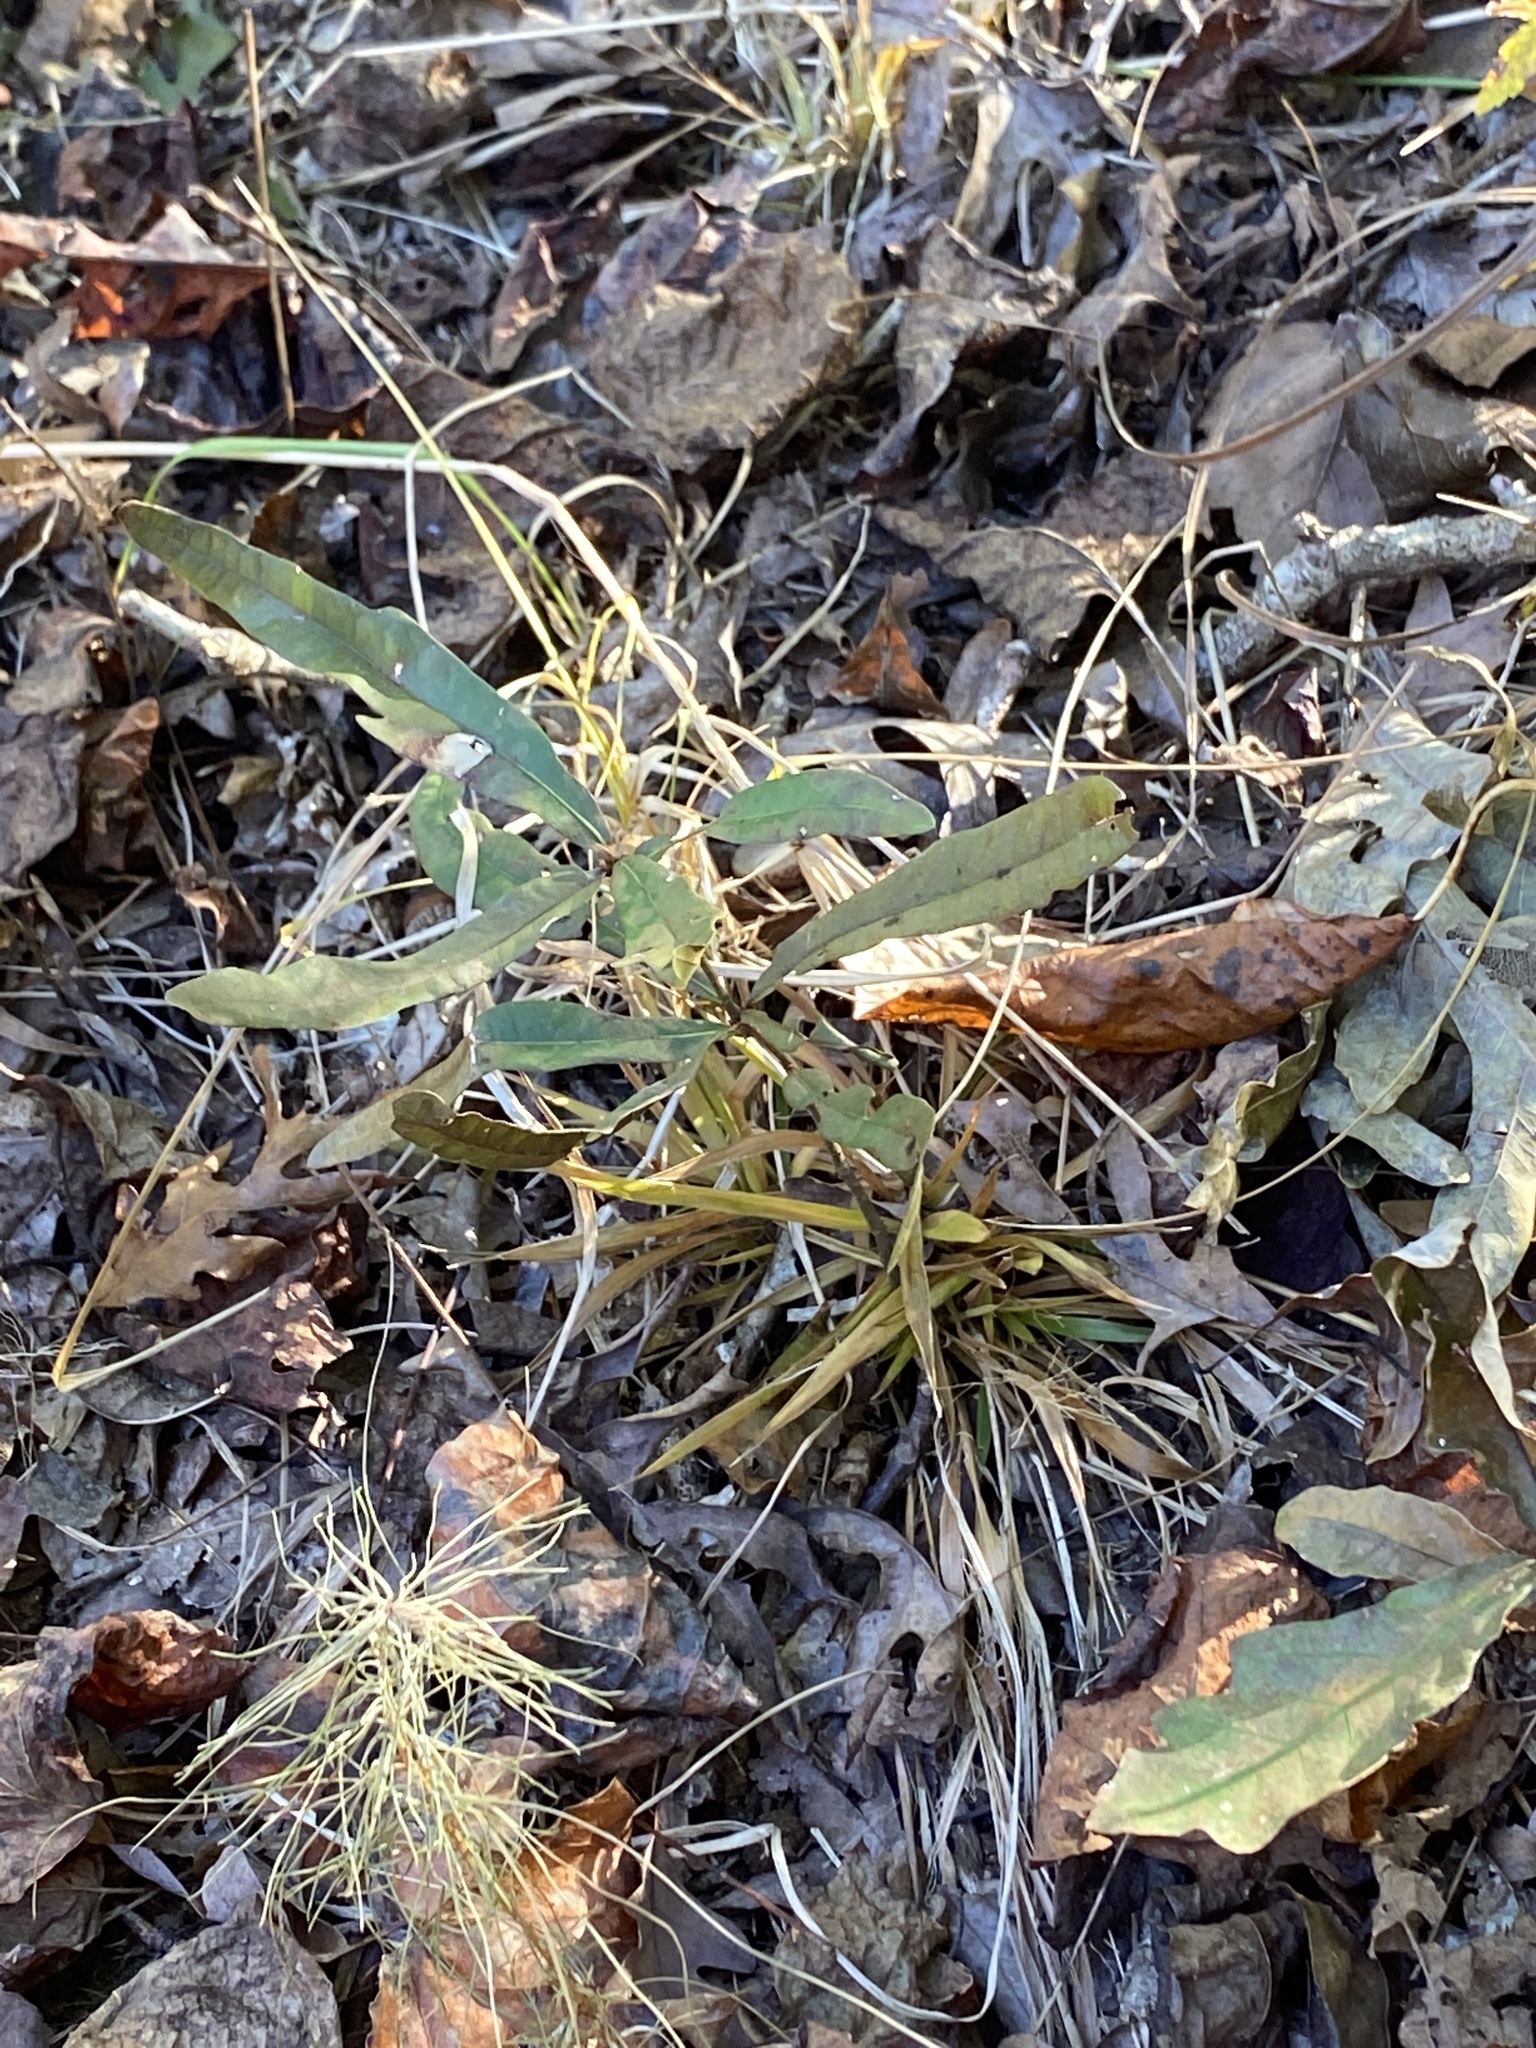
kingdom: Plantae
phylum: Tracheophyta
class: Magnoliopsida
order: Fagales
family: Fagaceae
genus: Quercus
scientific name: Quercus phellos
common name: Willow oak
